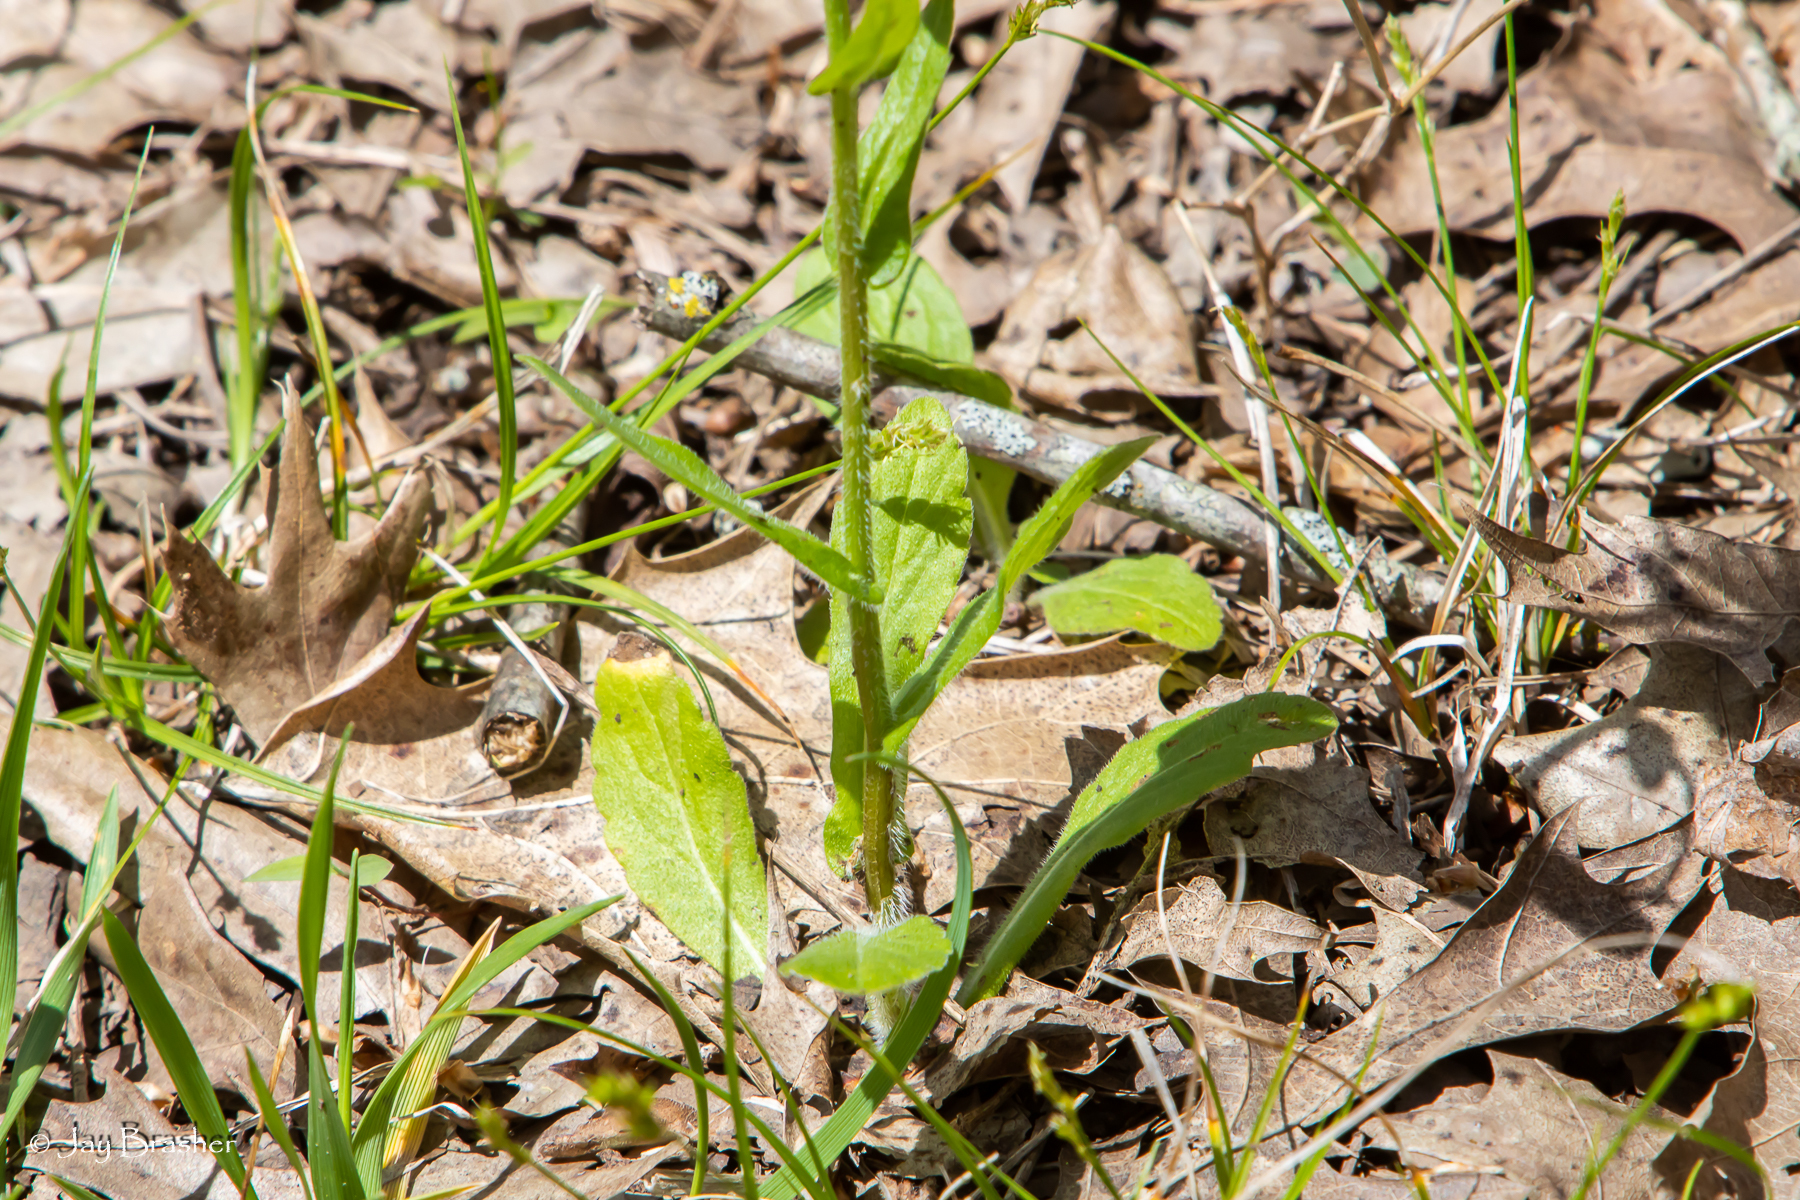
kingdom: Plantae
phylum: Tracheophyta
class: Magnoliopsida
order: Asterales
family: Asteraceae
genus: Erigeron
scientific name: Erigeron philadelphicus
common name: Robin's-plantain
